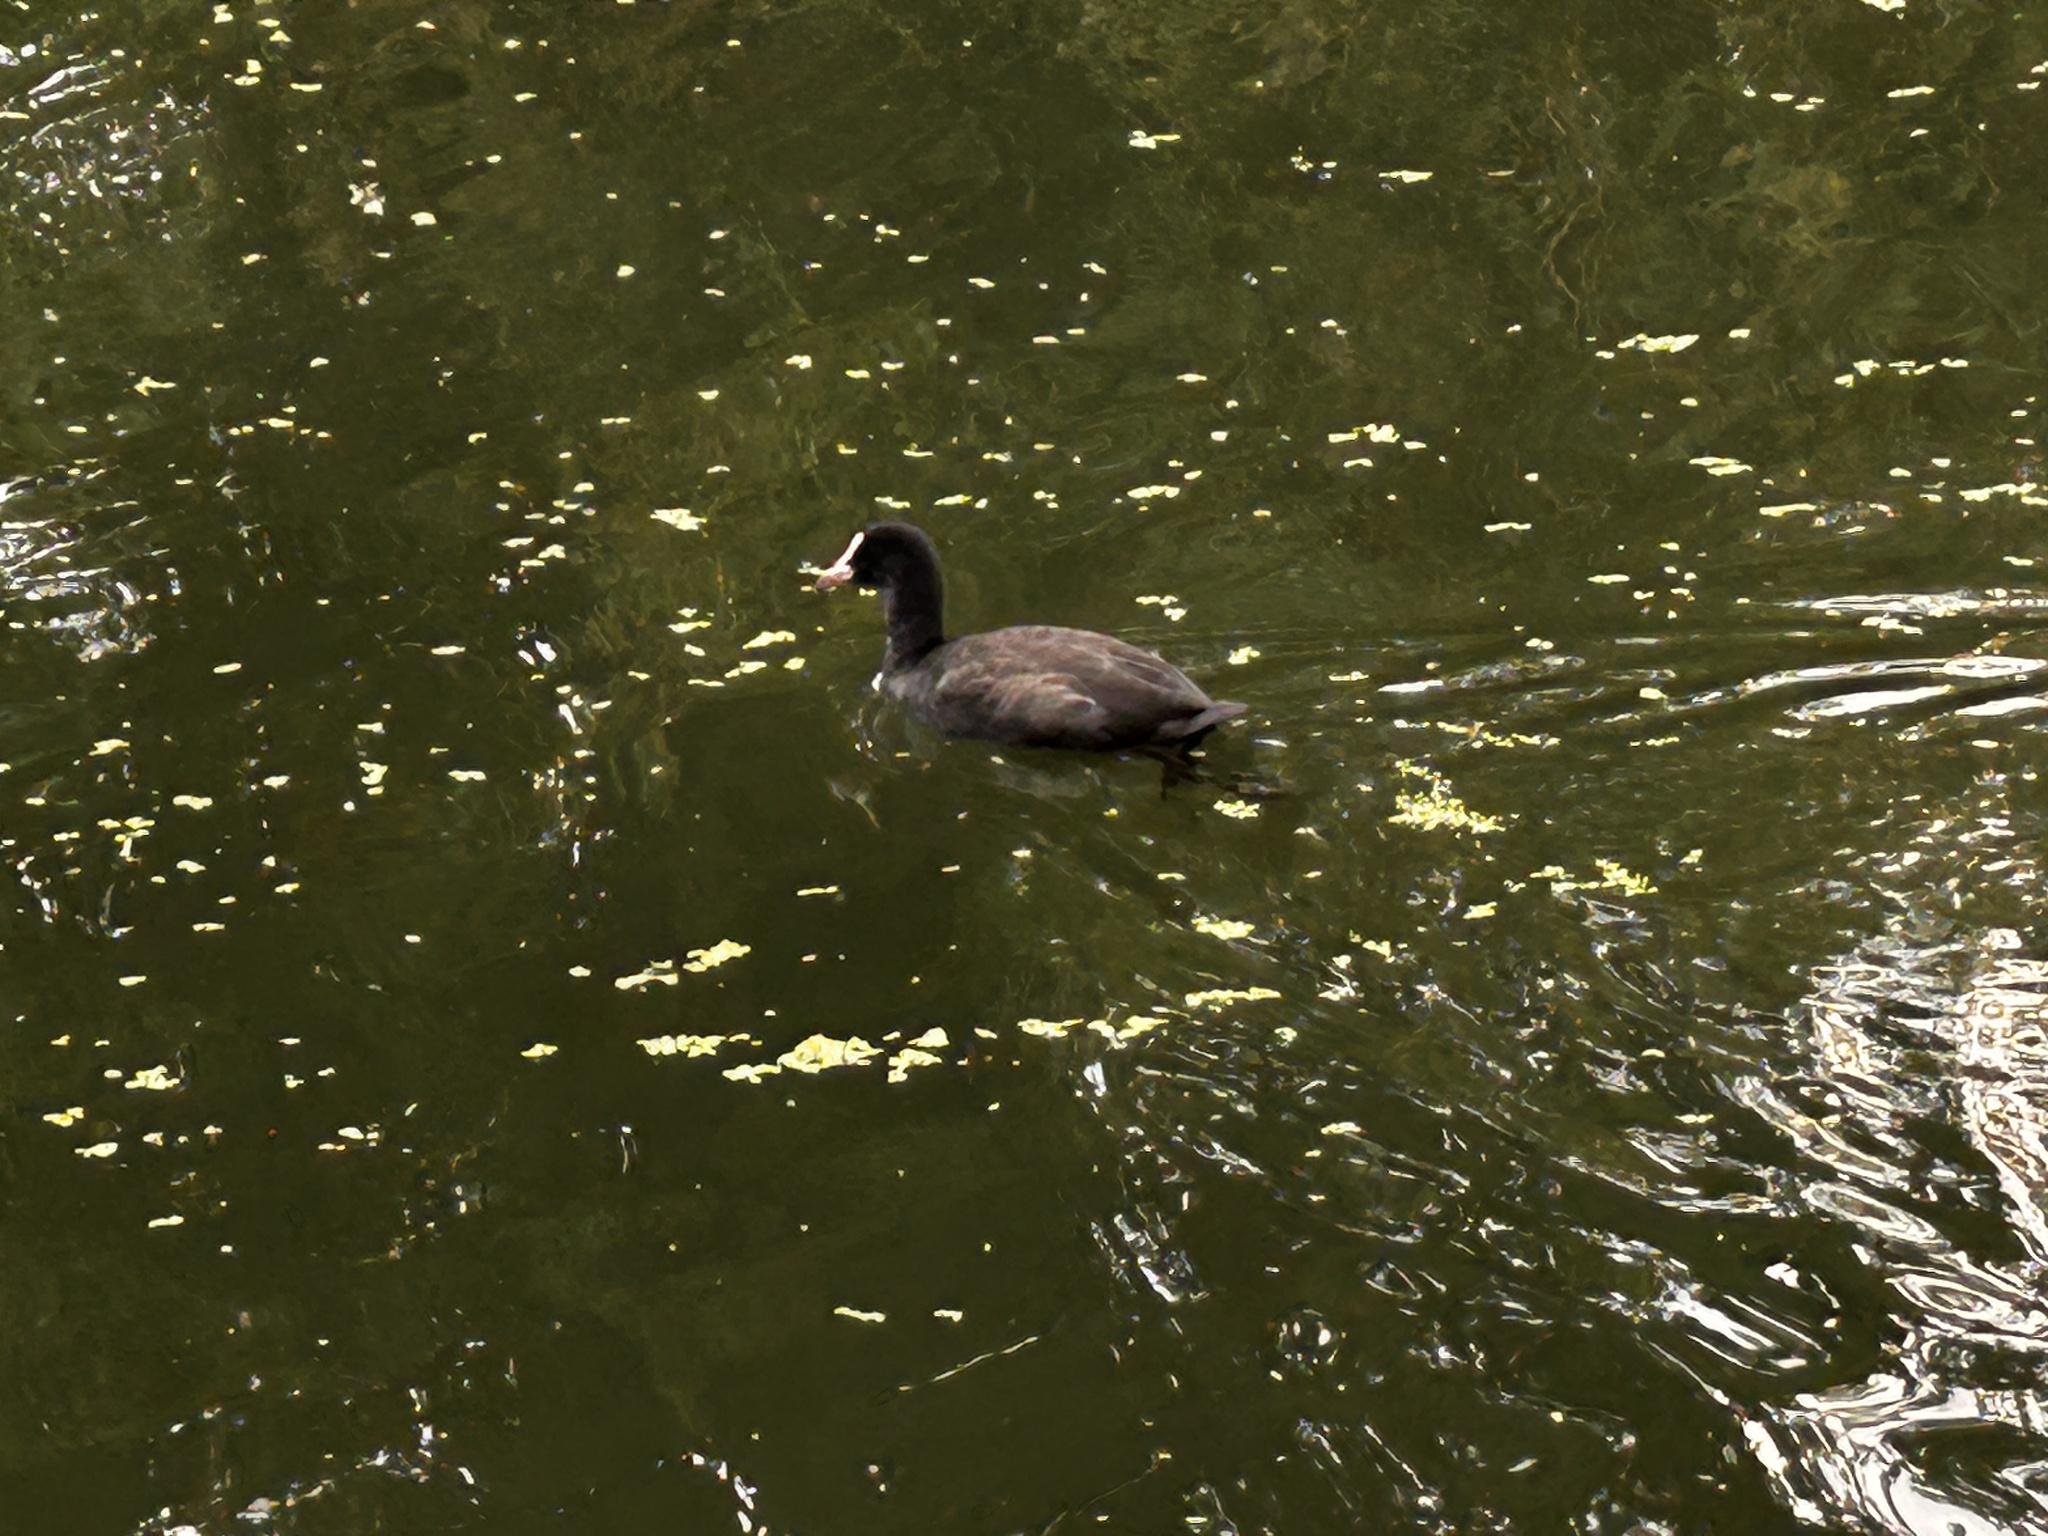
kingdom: Animalia
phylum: Chordata
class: Aves
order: Gruiformes
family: Rallidae
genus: Fulica
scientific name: Fulica atra
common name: Eurasian coot
